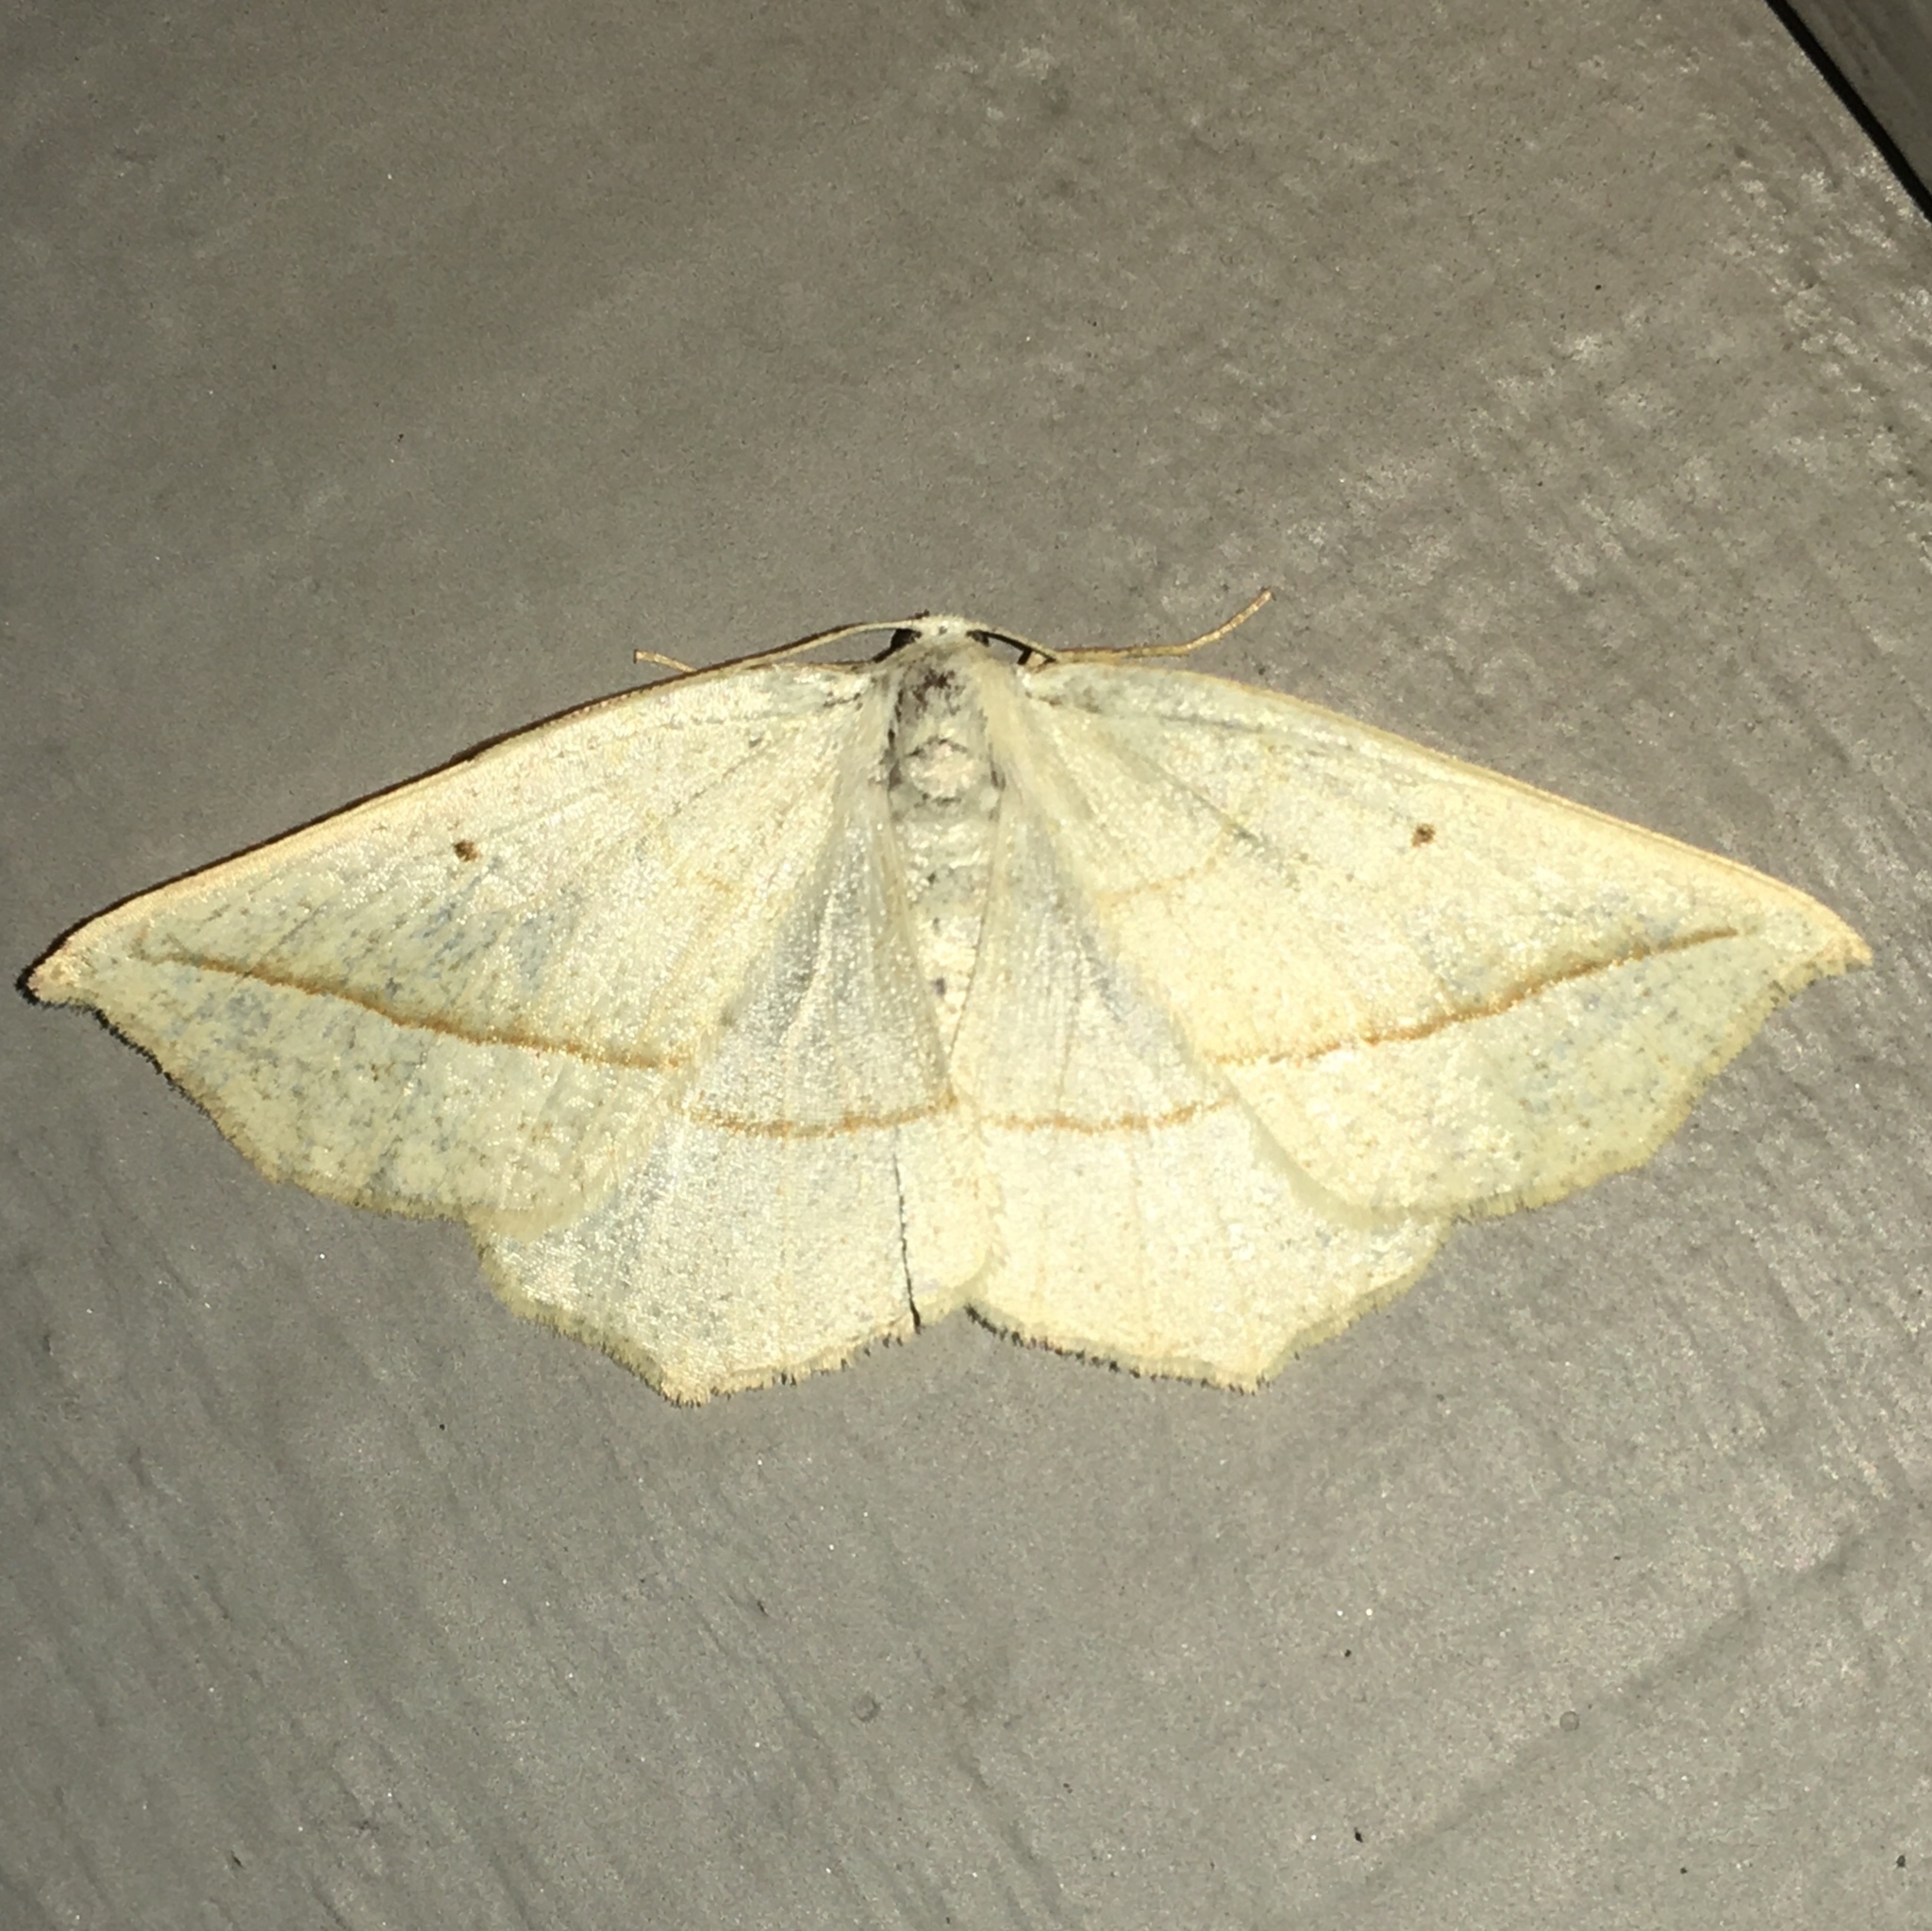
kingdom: Animalia
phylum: Arthropoda
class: Insecta
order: Lepidoptera
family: Geometridae
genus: Eusarca
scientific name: Eusarca confusaria
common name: Confused eusarca
